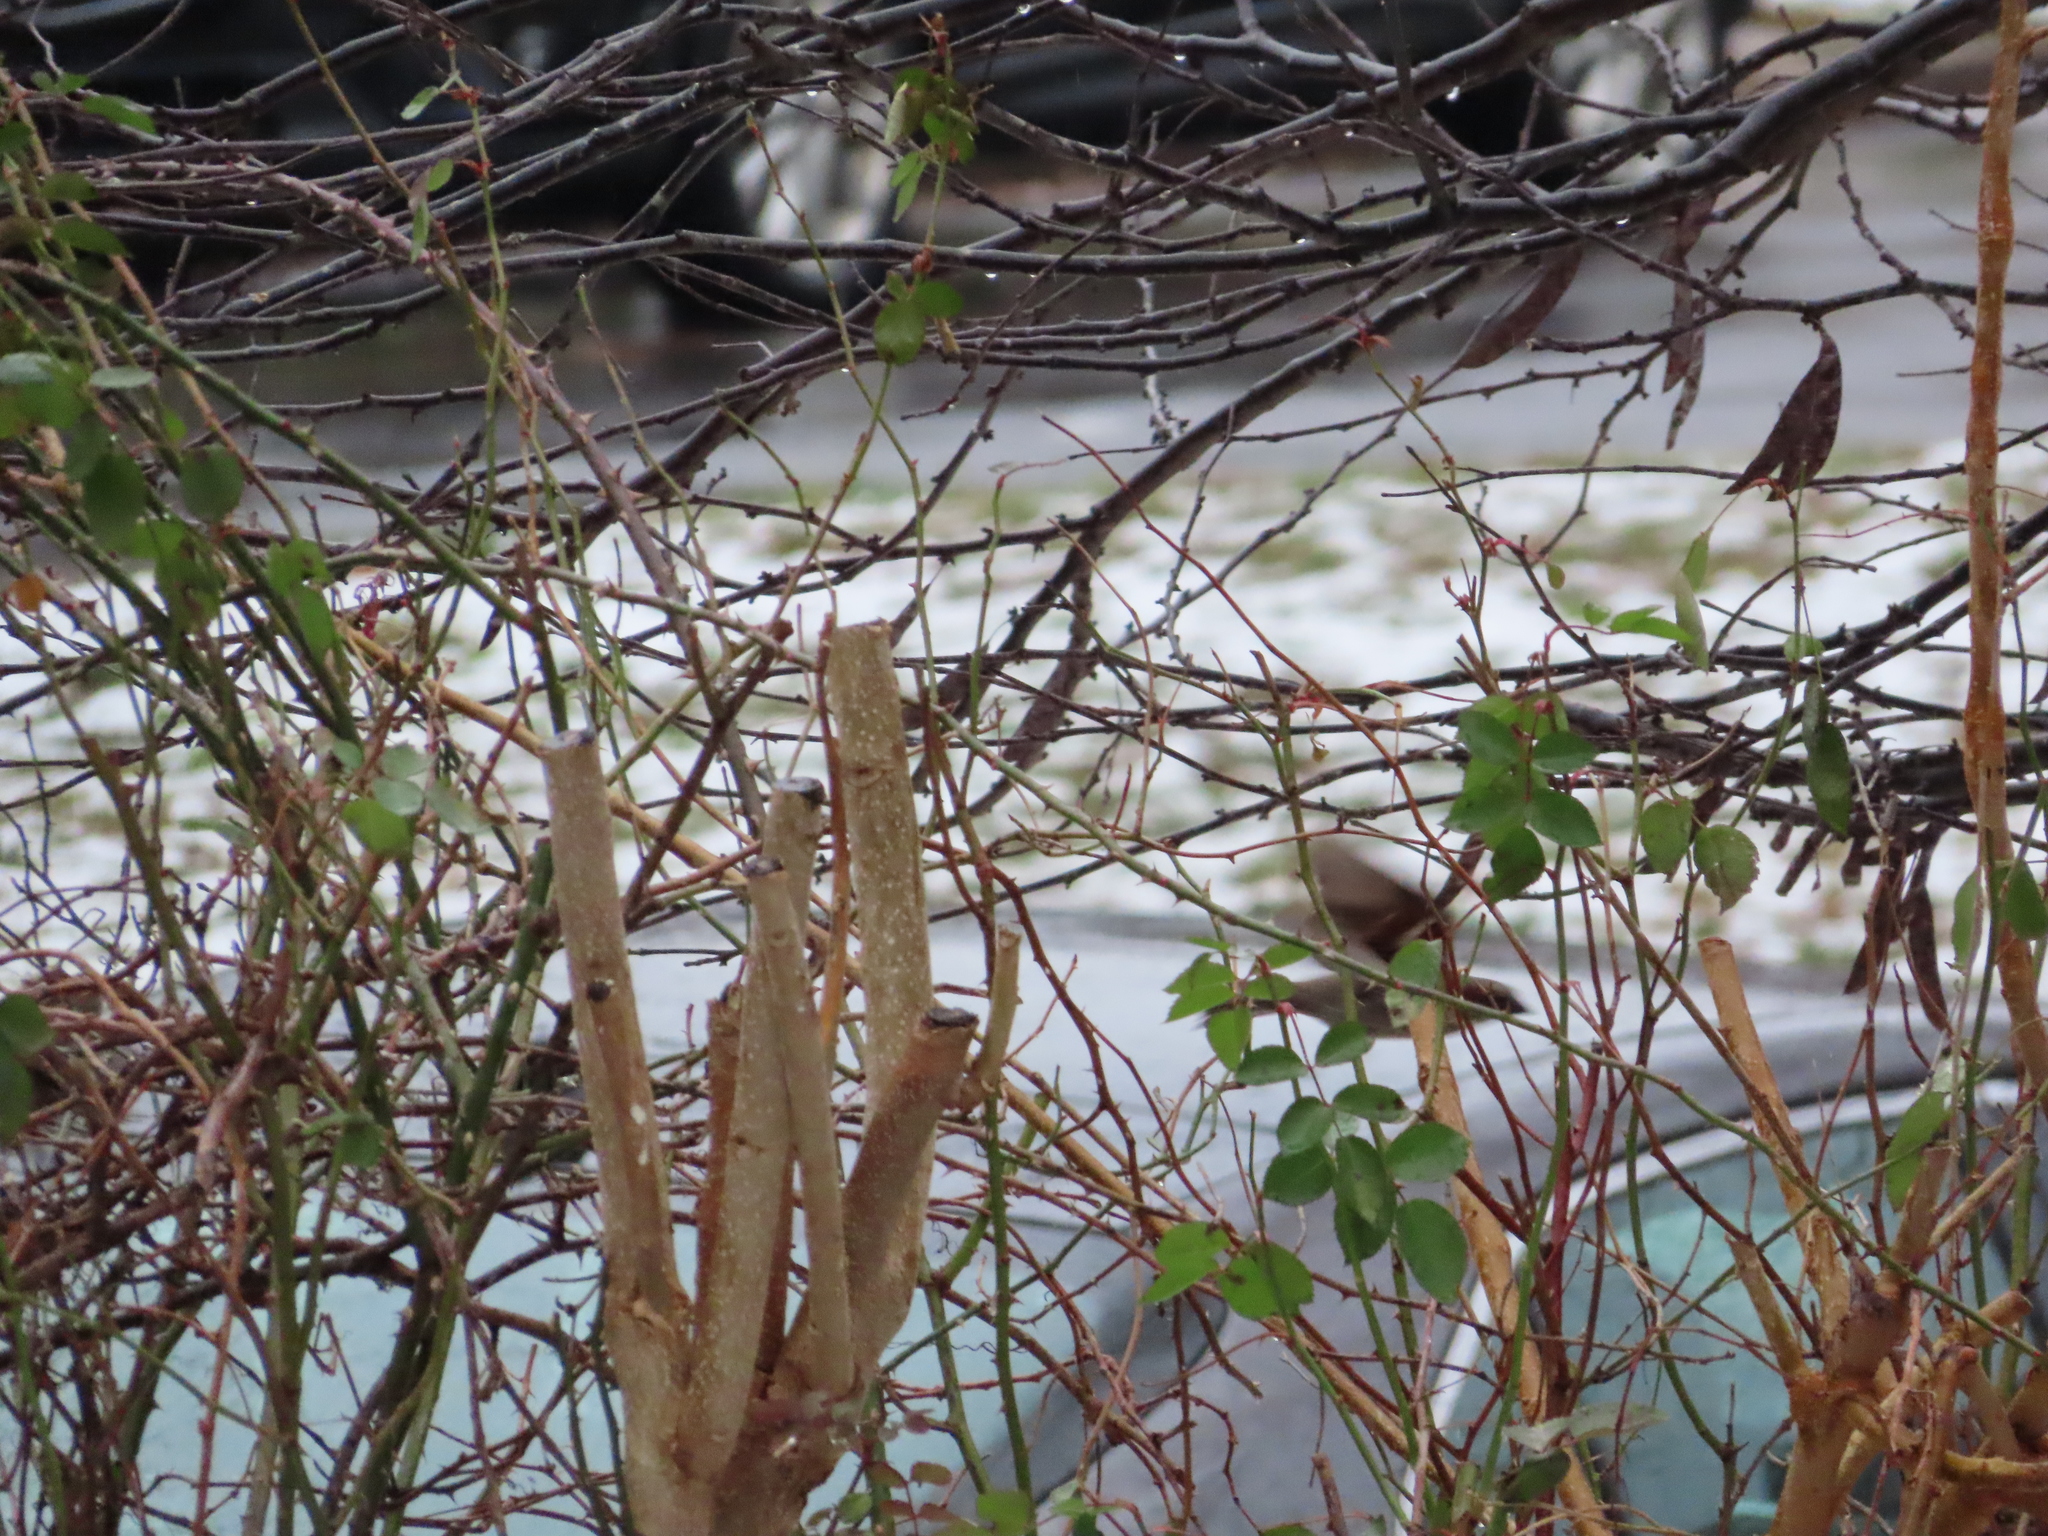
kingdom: Animalia
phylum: Chordata
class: Aves
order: Passeriformes
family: Passeridae
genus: Passer
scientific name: Passer domesticus
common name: House sparrow
